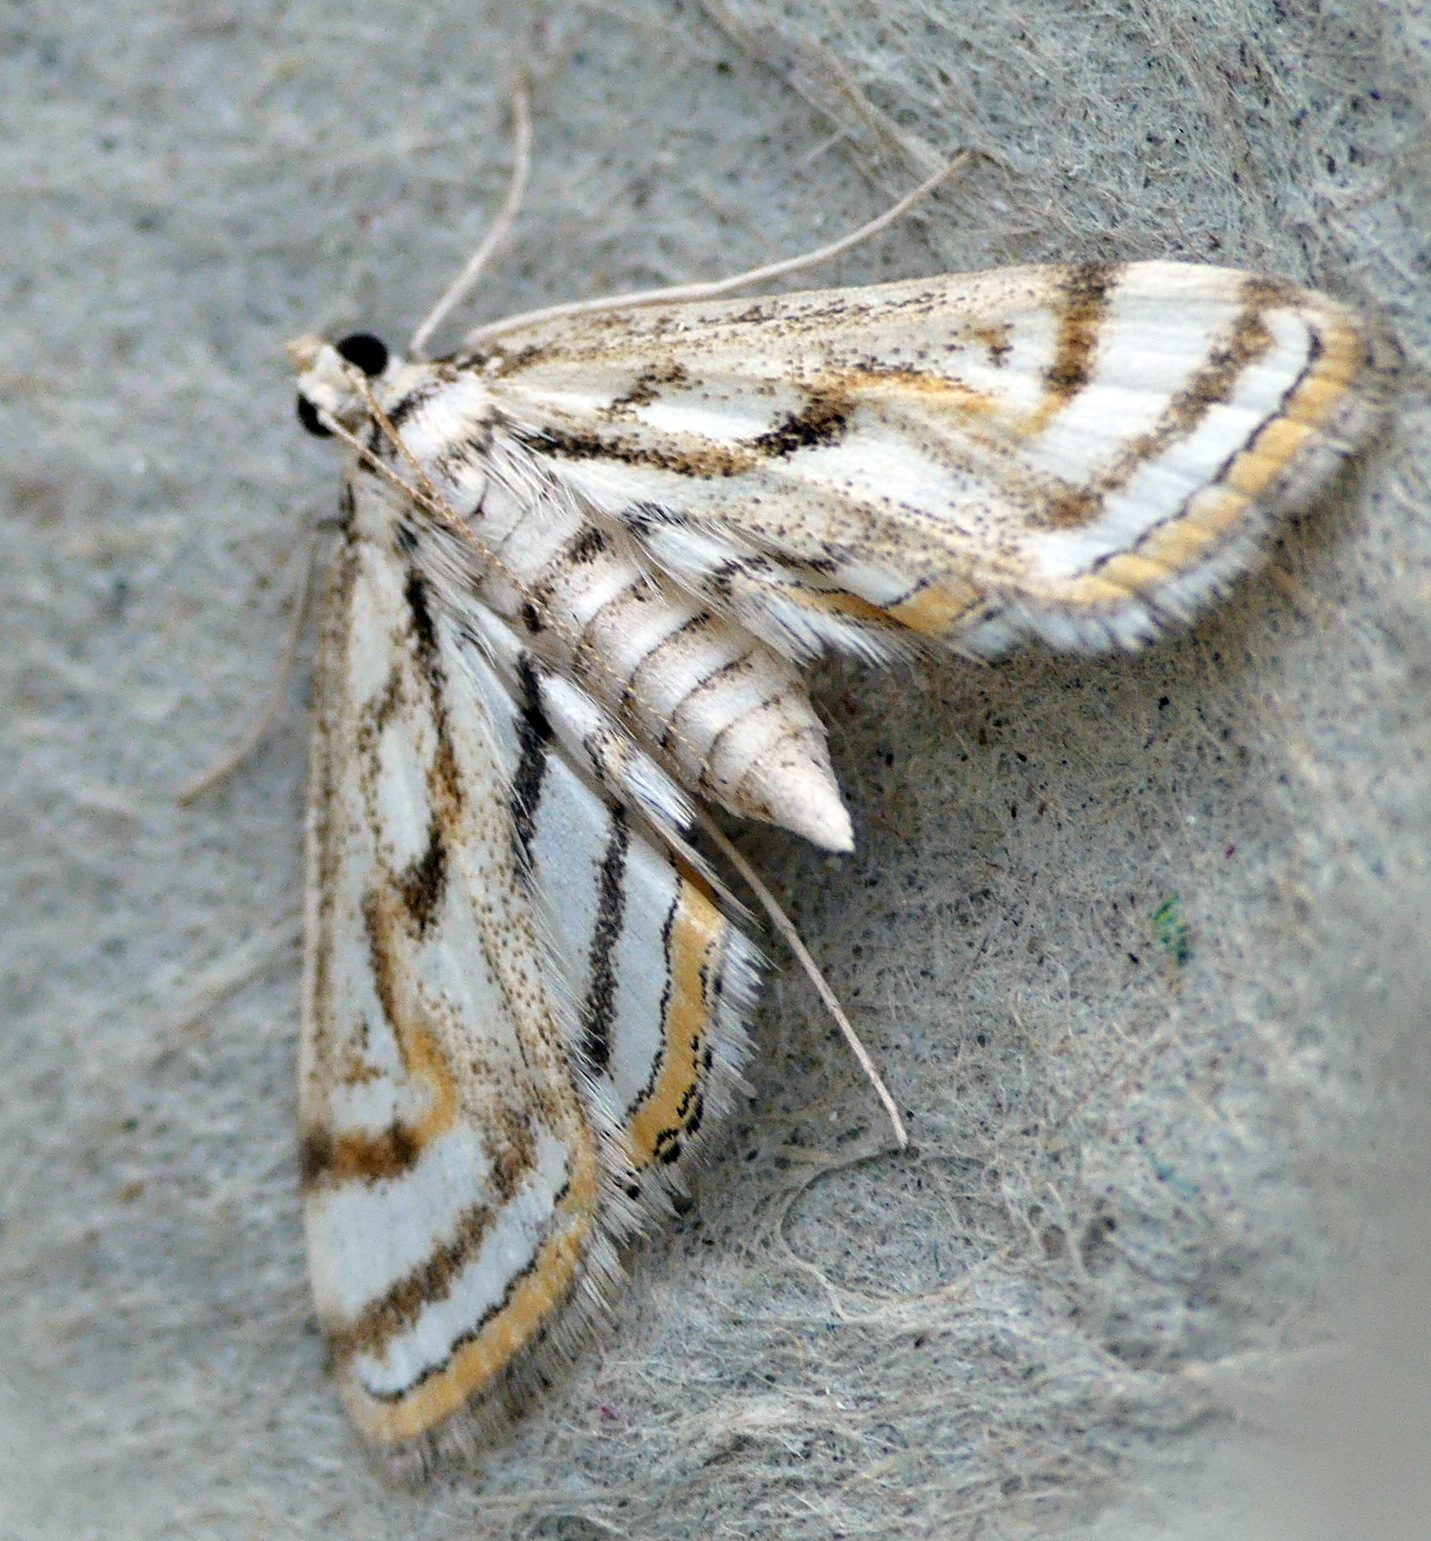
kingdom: Animalia
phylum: Arthropoda
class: Insecta
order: Lepidoptera
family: Crambidae
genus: Parapoynx
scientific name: Parapoynx badiusalis
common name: Chestnut-marked pondweed moth
